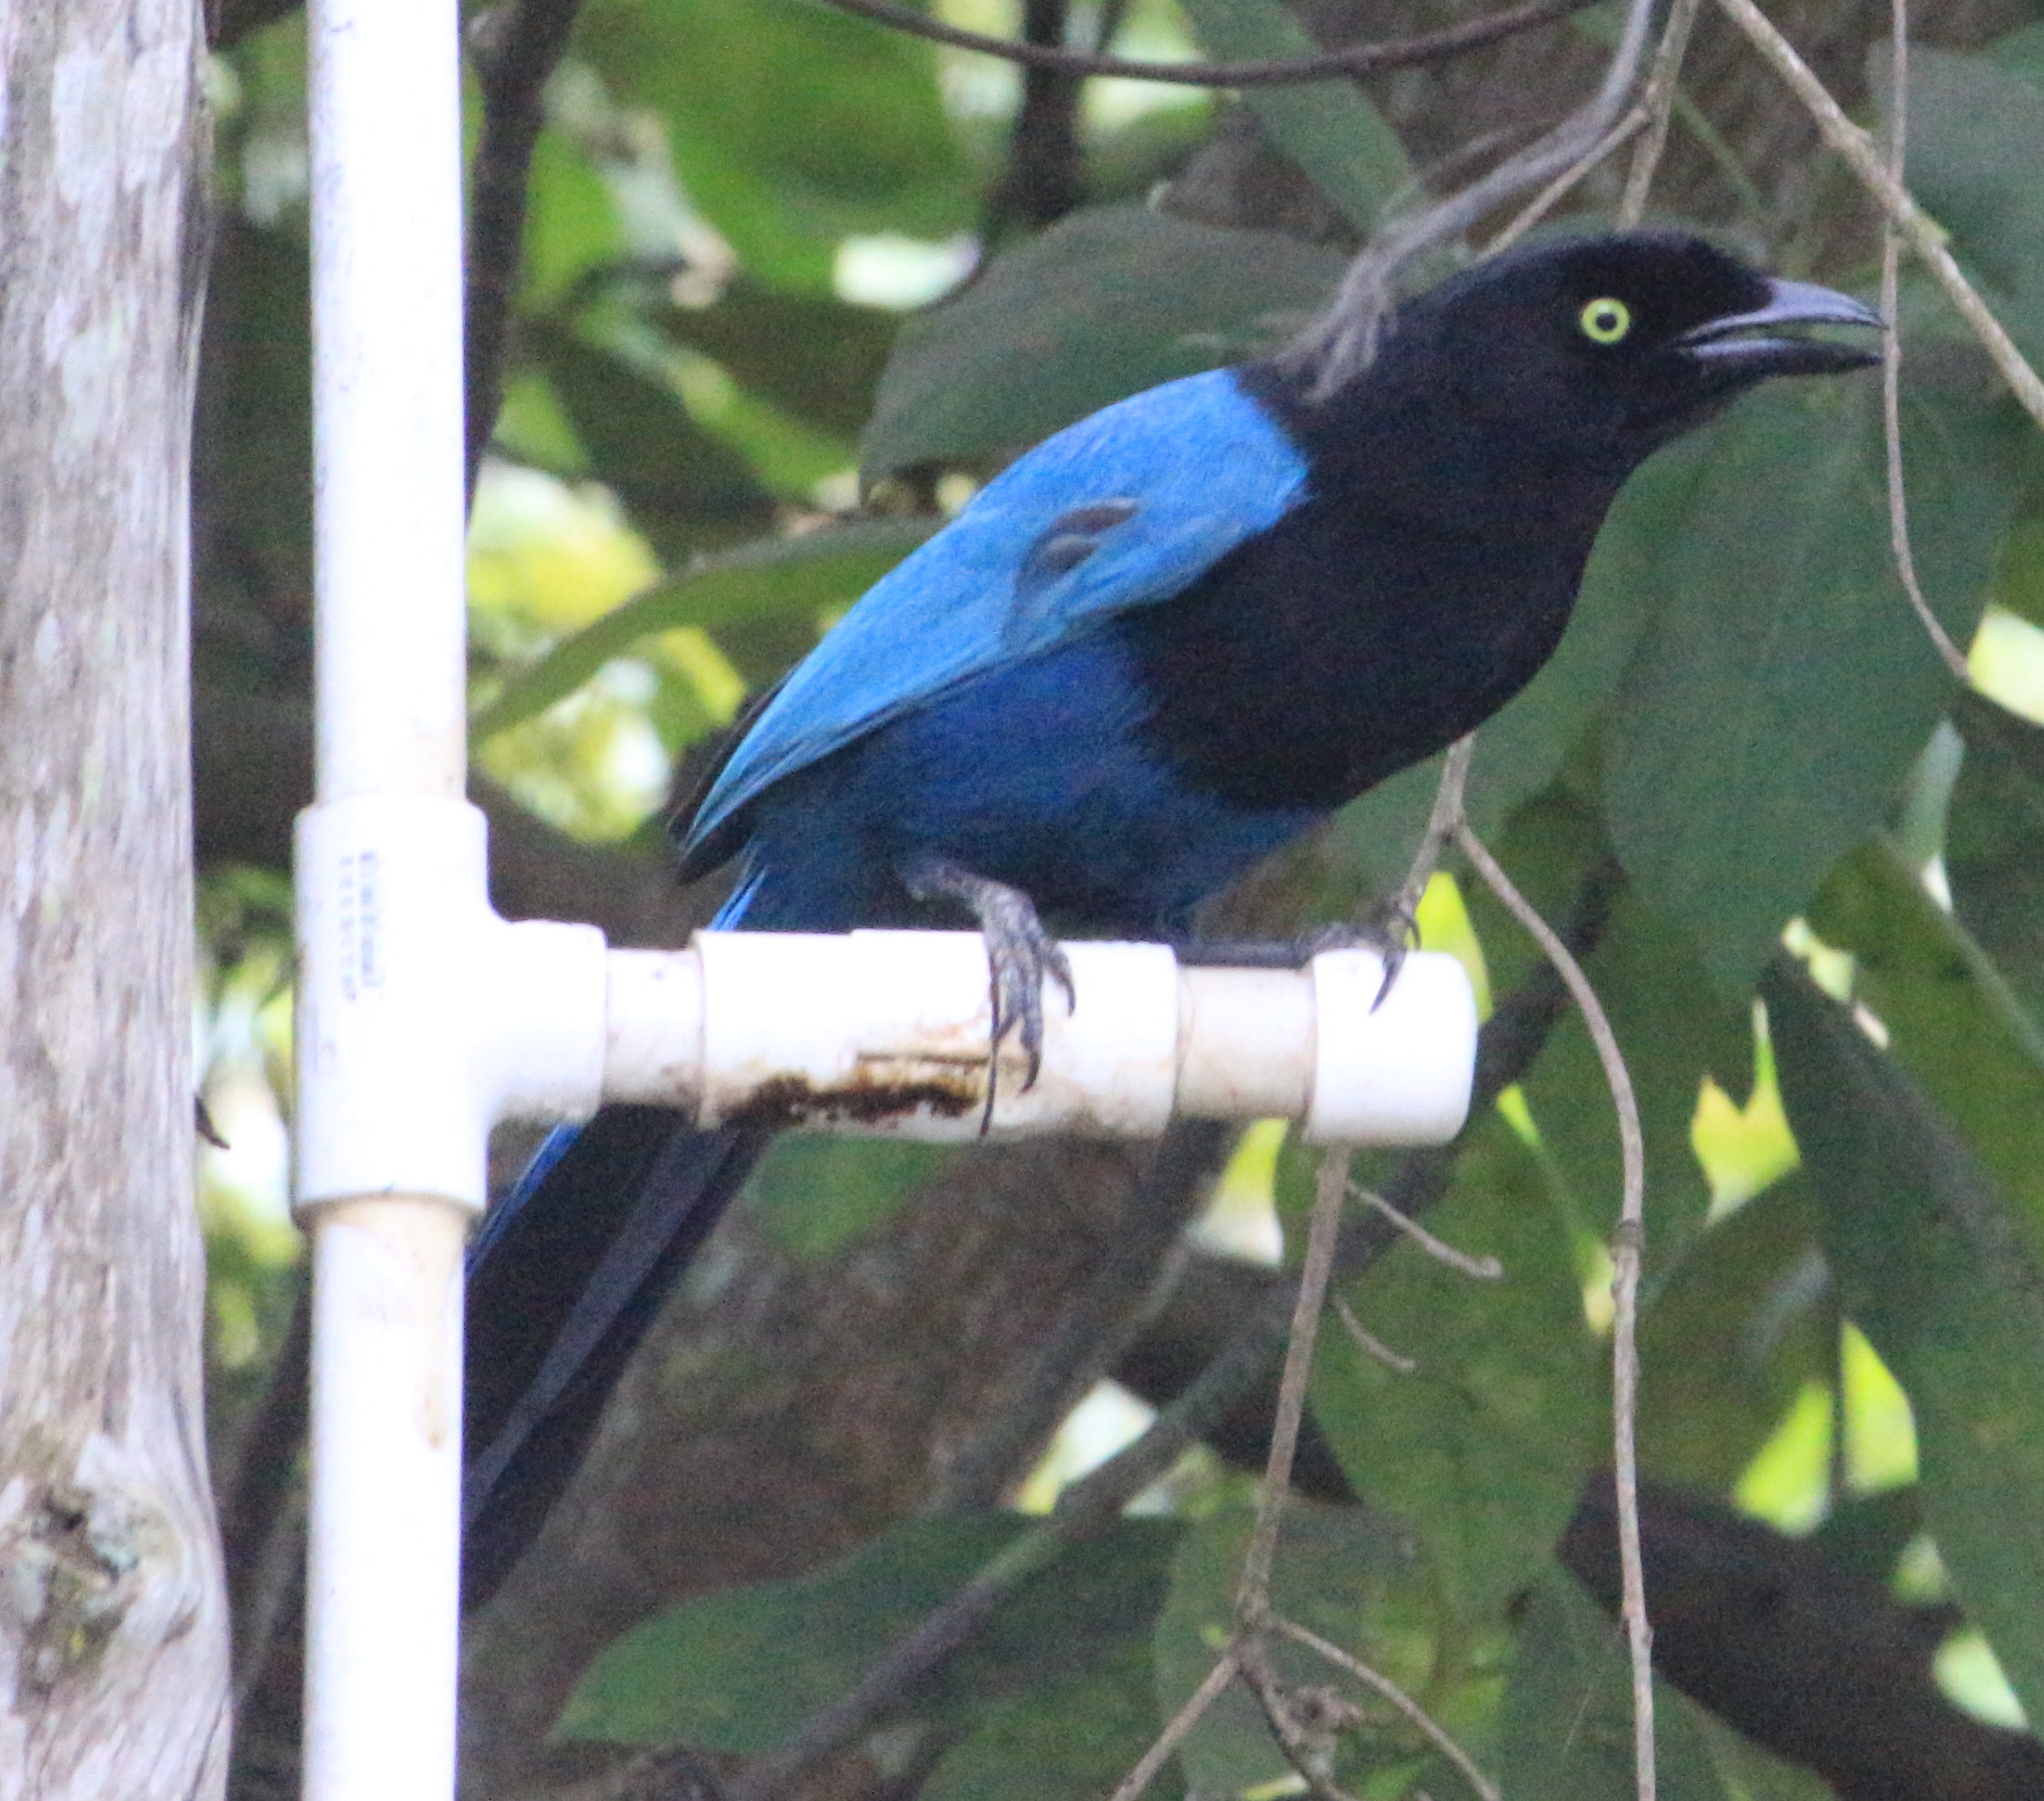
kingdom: Animalia
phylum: Chordata
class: Aves
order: Passeriformes
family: Corvidae
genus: Cyanocorax
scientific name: Cyanocorax melanocyaneus
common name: Bushy-crested jay
